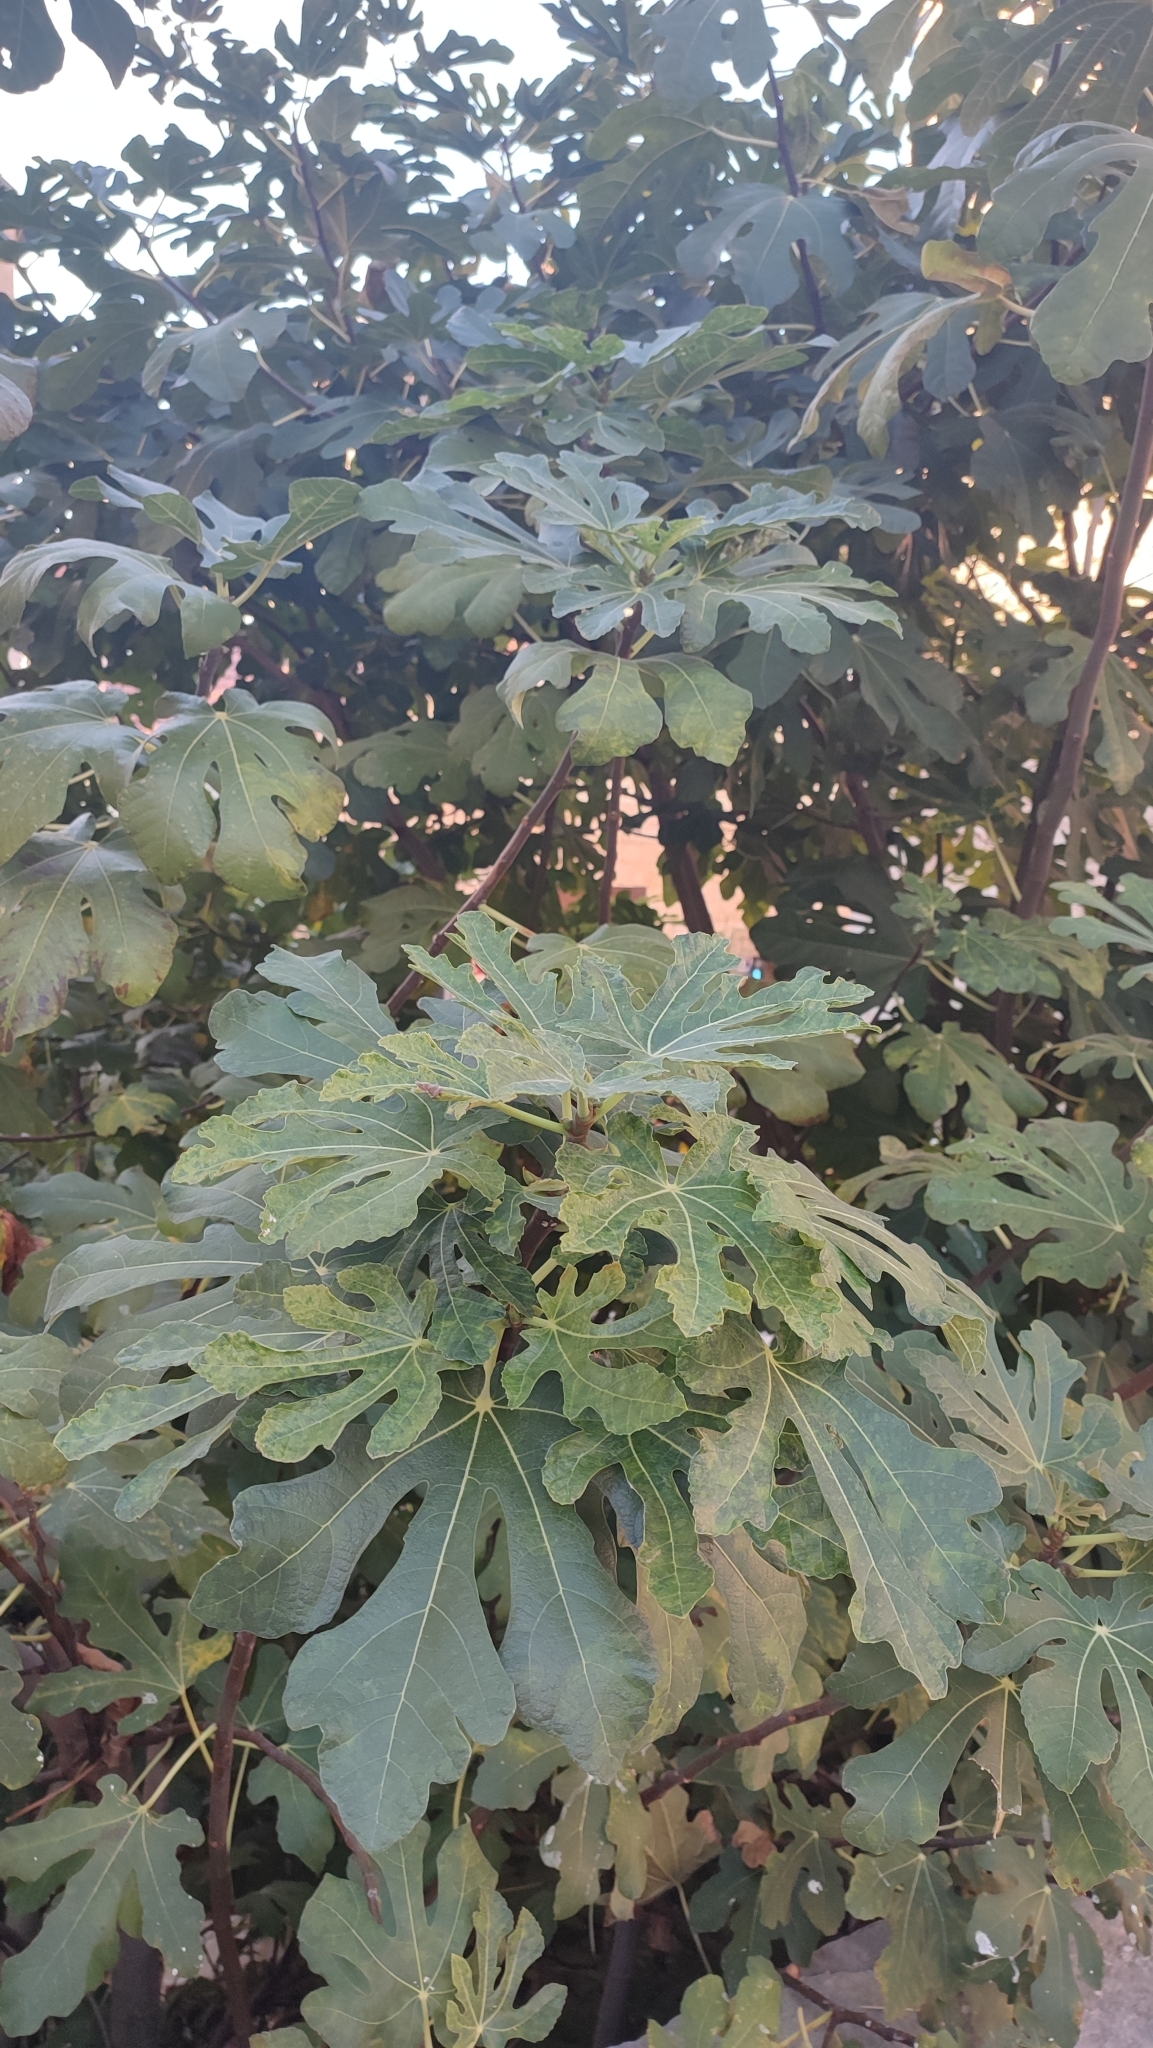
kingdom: Plantae
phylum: Tracheophyta
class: Magnoliopsida
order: Rosales
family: Moraceae
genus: Ficus
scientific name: Ficus carica
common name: Fig
